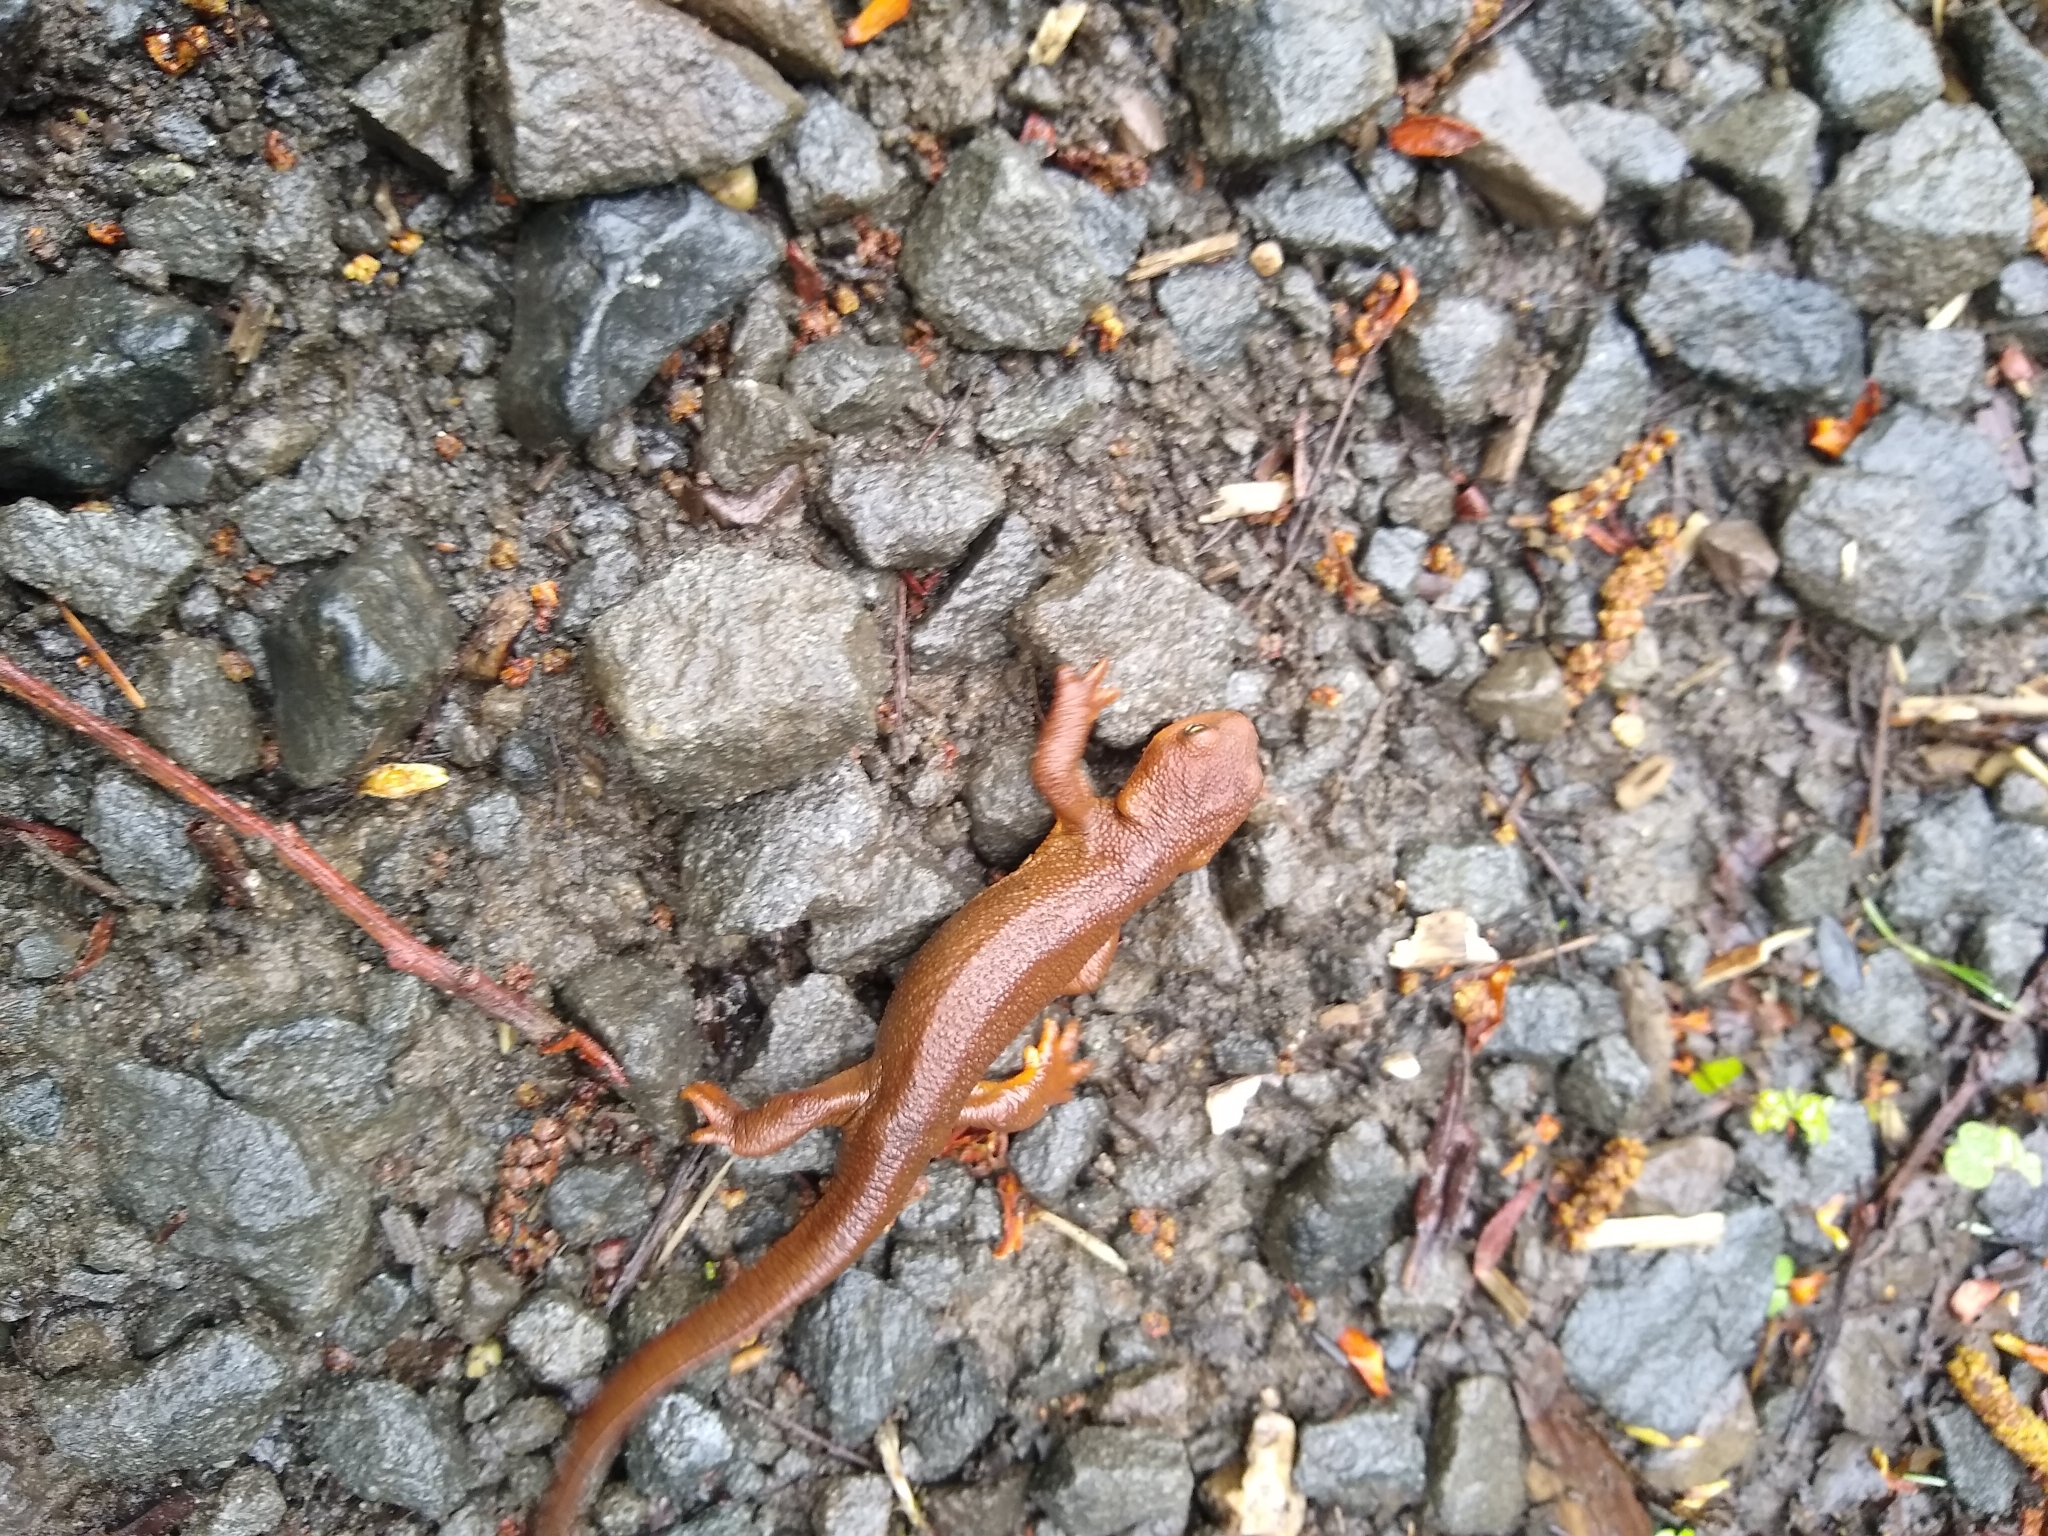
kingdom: Animalia
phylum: Chordata
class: Amphibia
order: Caudata
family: Salamandridae
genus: Taricha
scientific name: Taricha granulosa
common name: Roughskin newt
